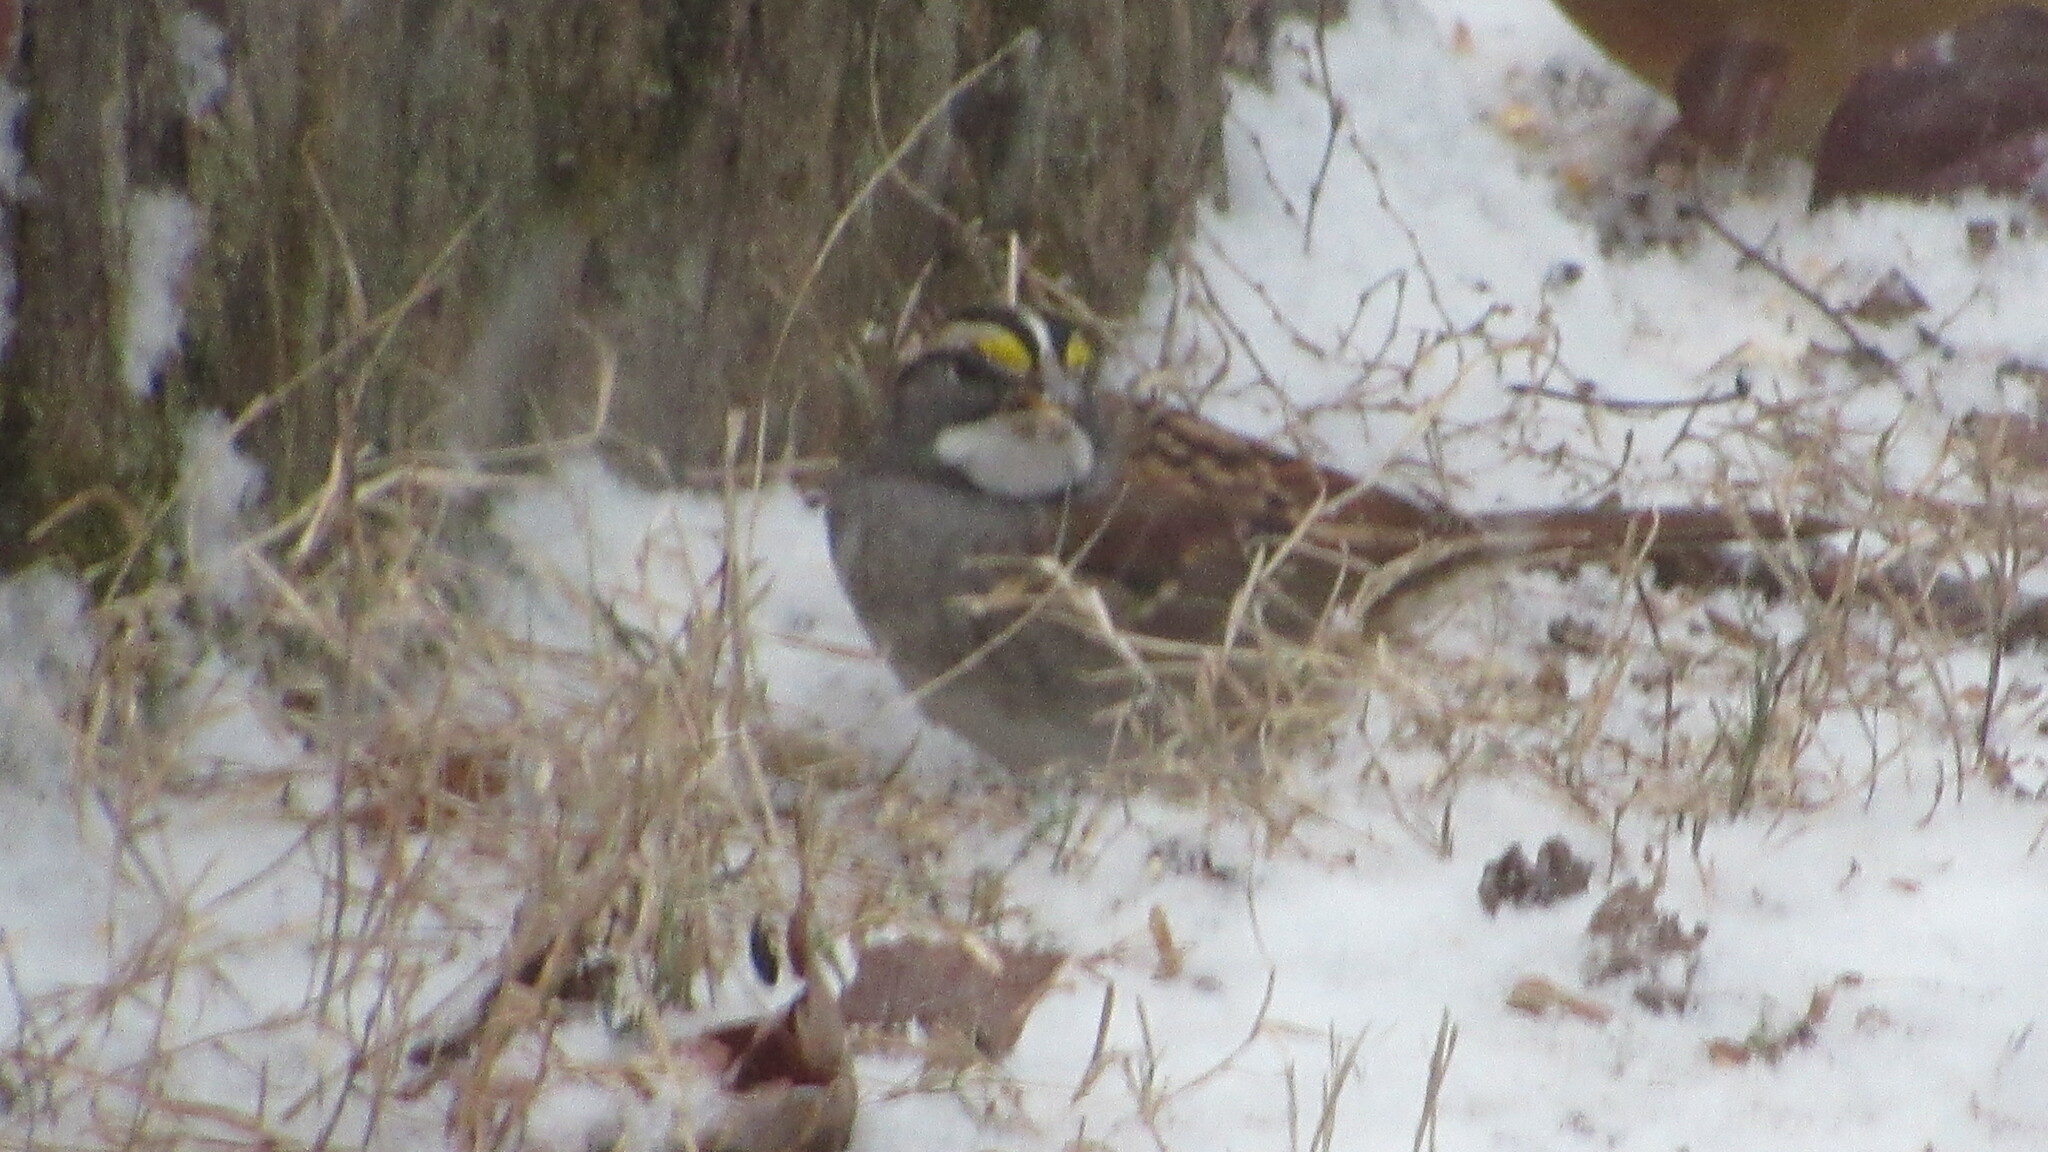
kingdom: Animalia
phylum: Chordata
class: Aves
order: Passeriformes
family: Passerellidae
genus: Zonotrichia
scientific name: Zonotrichia albicollis
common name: White-throated sparrow
